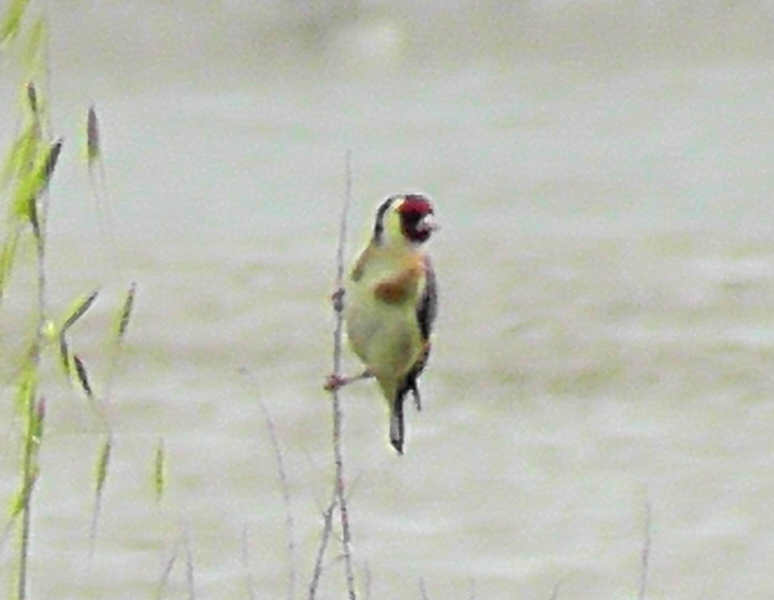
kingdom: Animalia
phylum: Chordata
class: Aves
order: Passeriformes
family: Fringillidae
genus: Carduelis
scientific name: Carduelis carduelis
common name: European goldfinch
